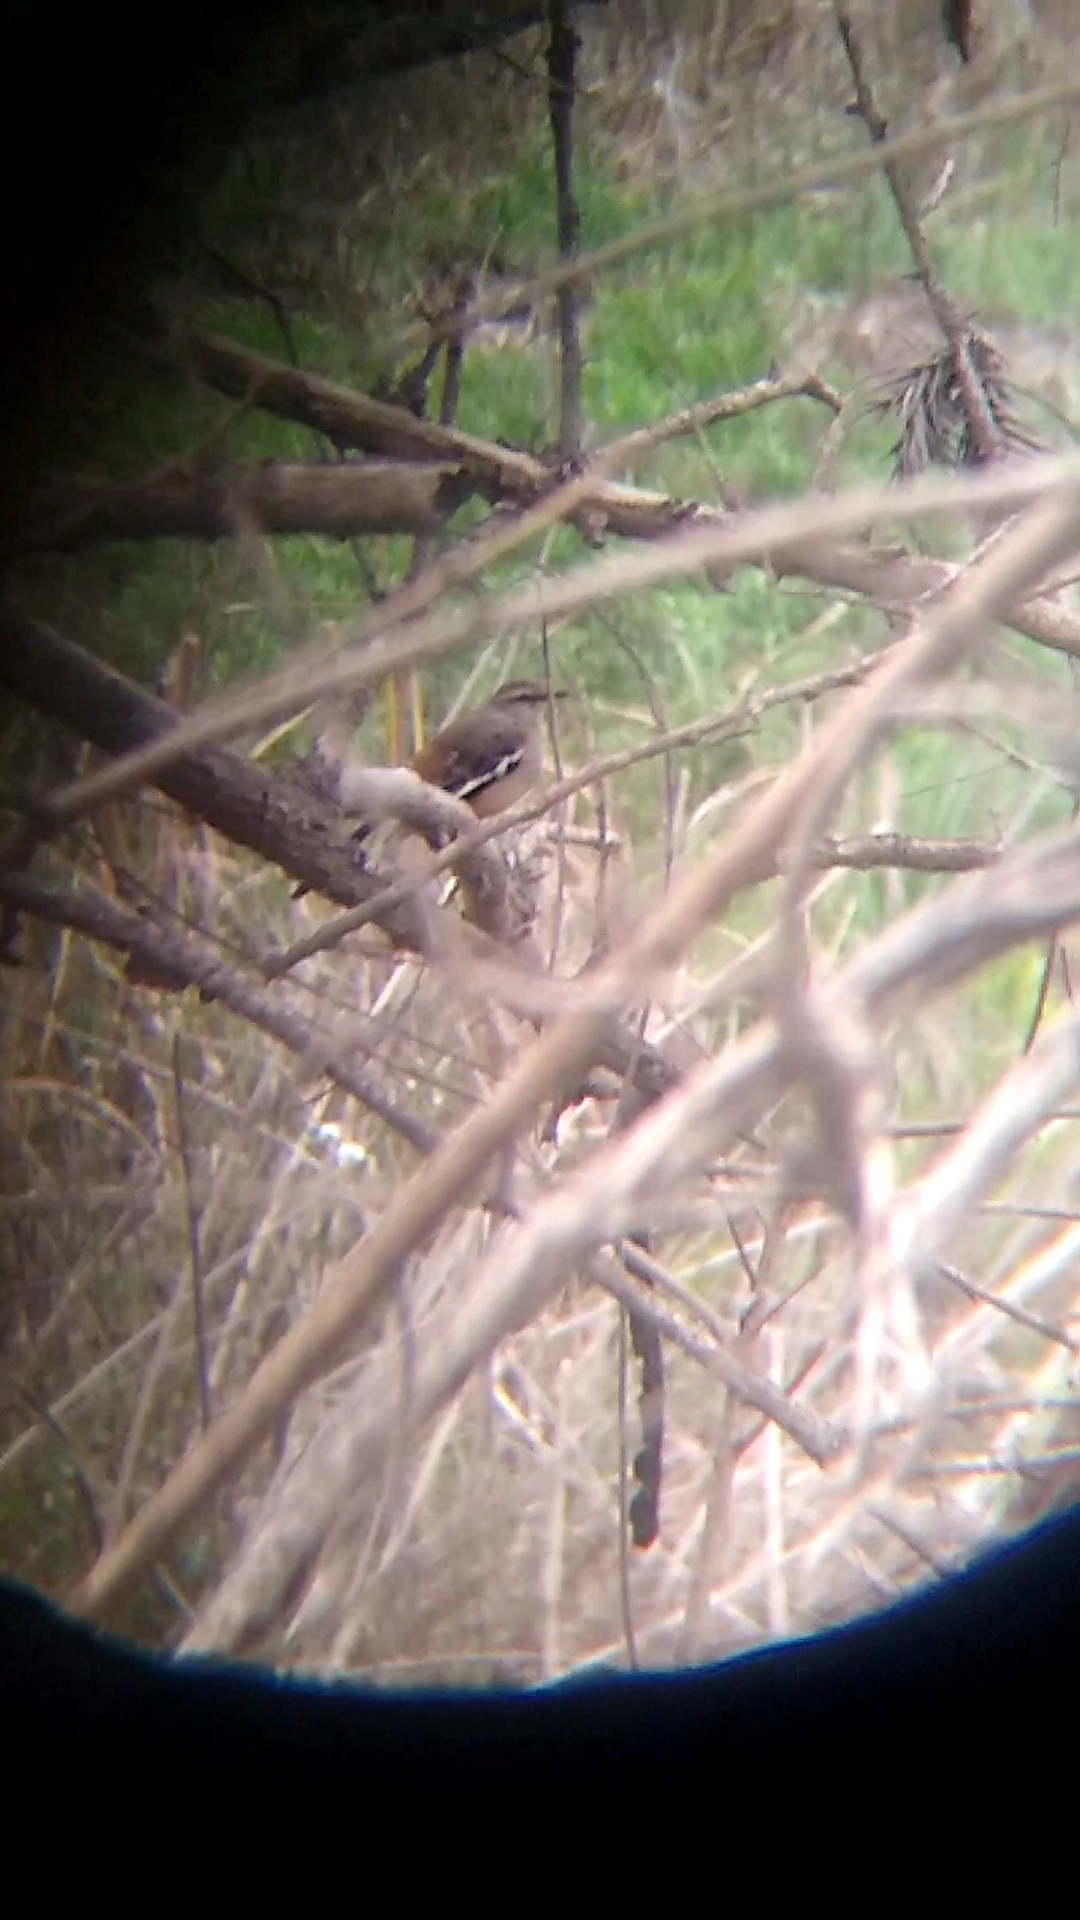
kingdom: Animalia
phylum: Chordata
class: Aves
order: Passeriformes
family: Mimidae
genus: Mimus
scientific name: Mimus triurus
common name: White-banded mockingbird
